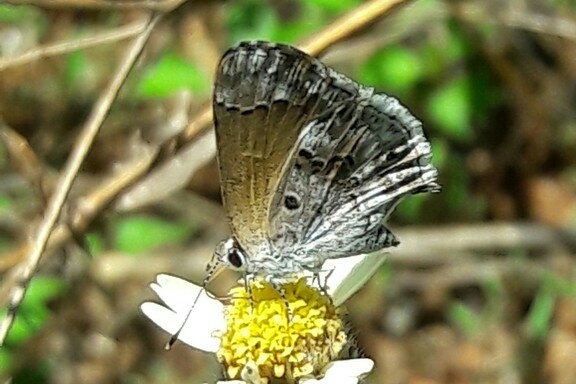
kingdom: Animalia
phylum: Arthropoda
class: Insecta
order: Lepidoptera
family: Lycaenidae
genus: Thecla
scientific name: Thecla cestri
